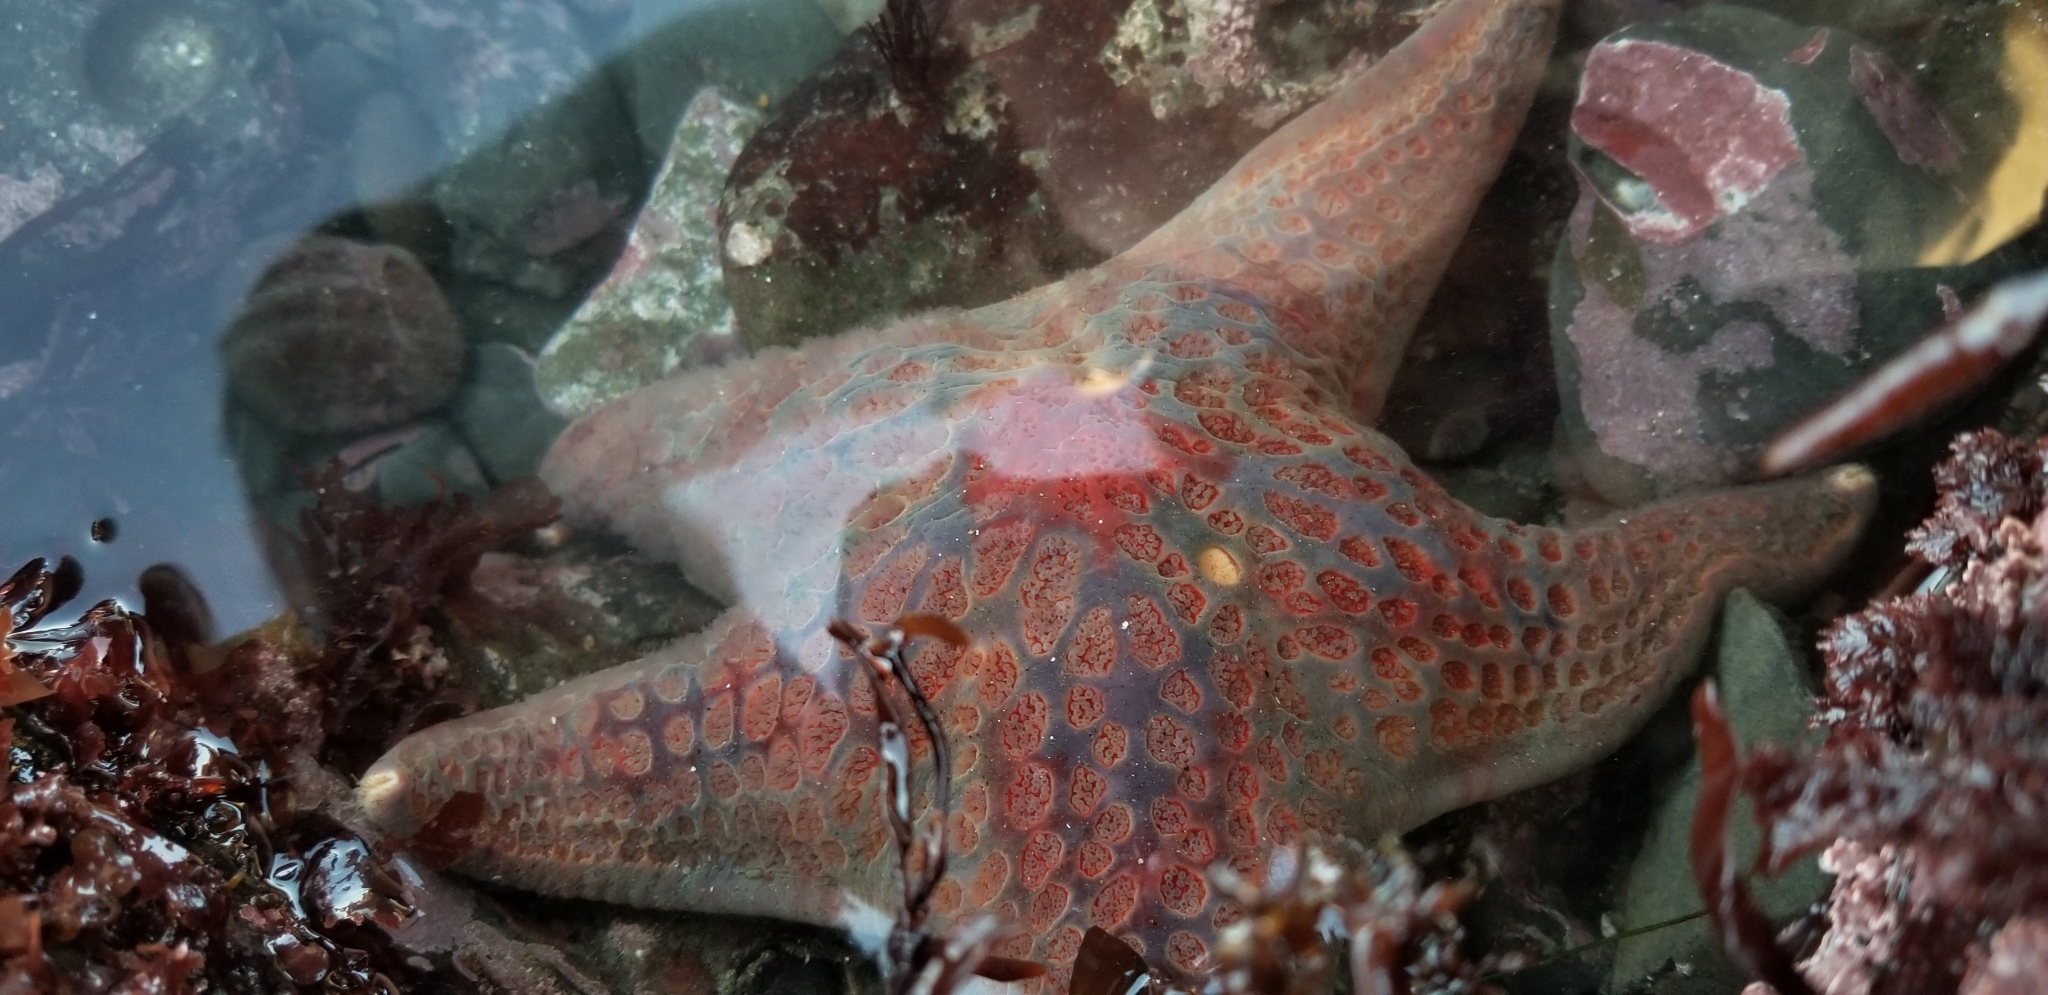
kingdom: Animalia
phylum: Echinodermata
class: Asteroidea
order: Valvatida
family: Asteropseidae
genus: Dermasterias
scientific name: Dermasterias imbricata
